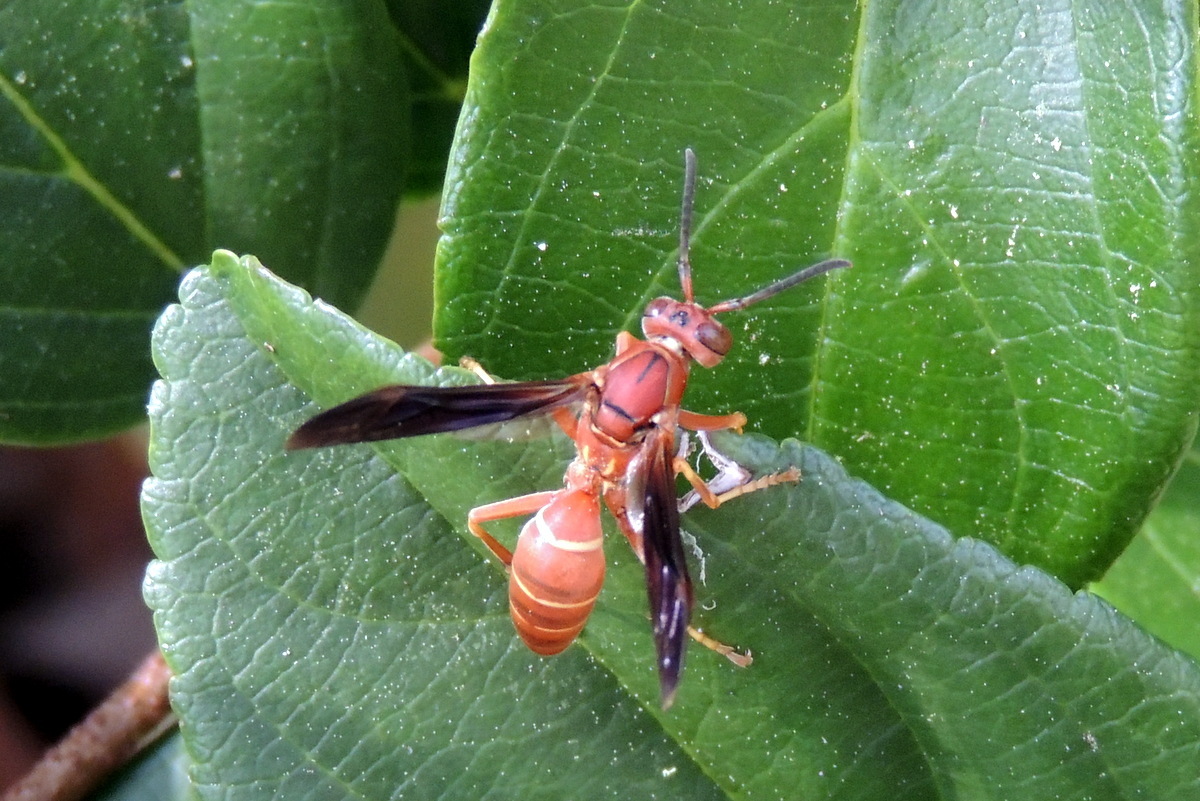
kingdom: Animalia
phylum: Arthropoda
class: Insecta
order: Hymenoptera
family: Eumenidae
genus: Polistes
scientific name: Polistes fuscatus
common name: Dark paper wasp
